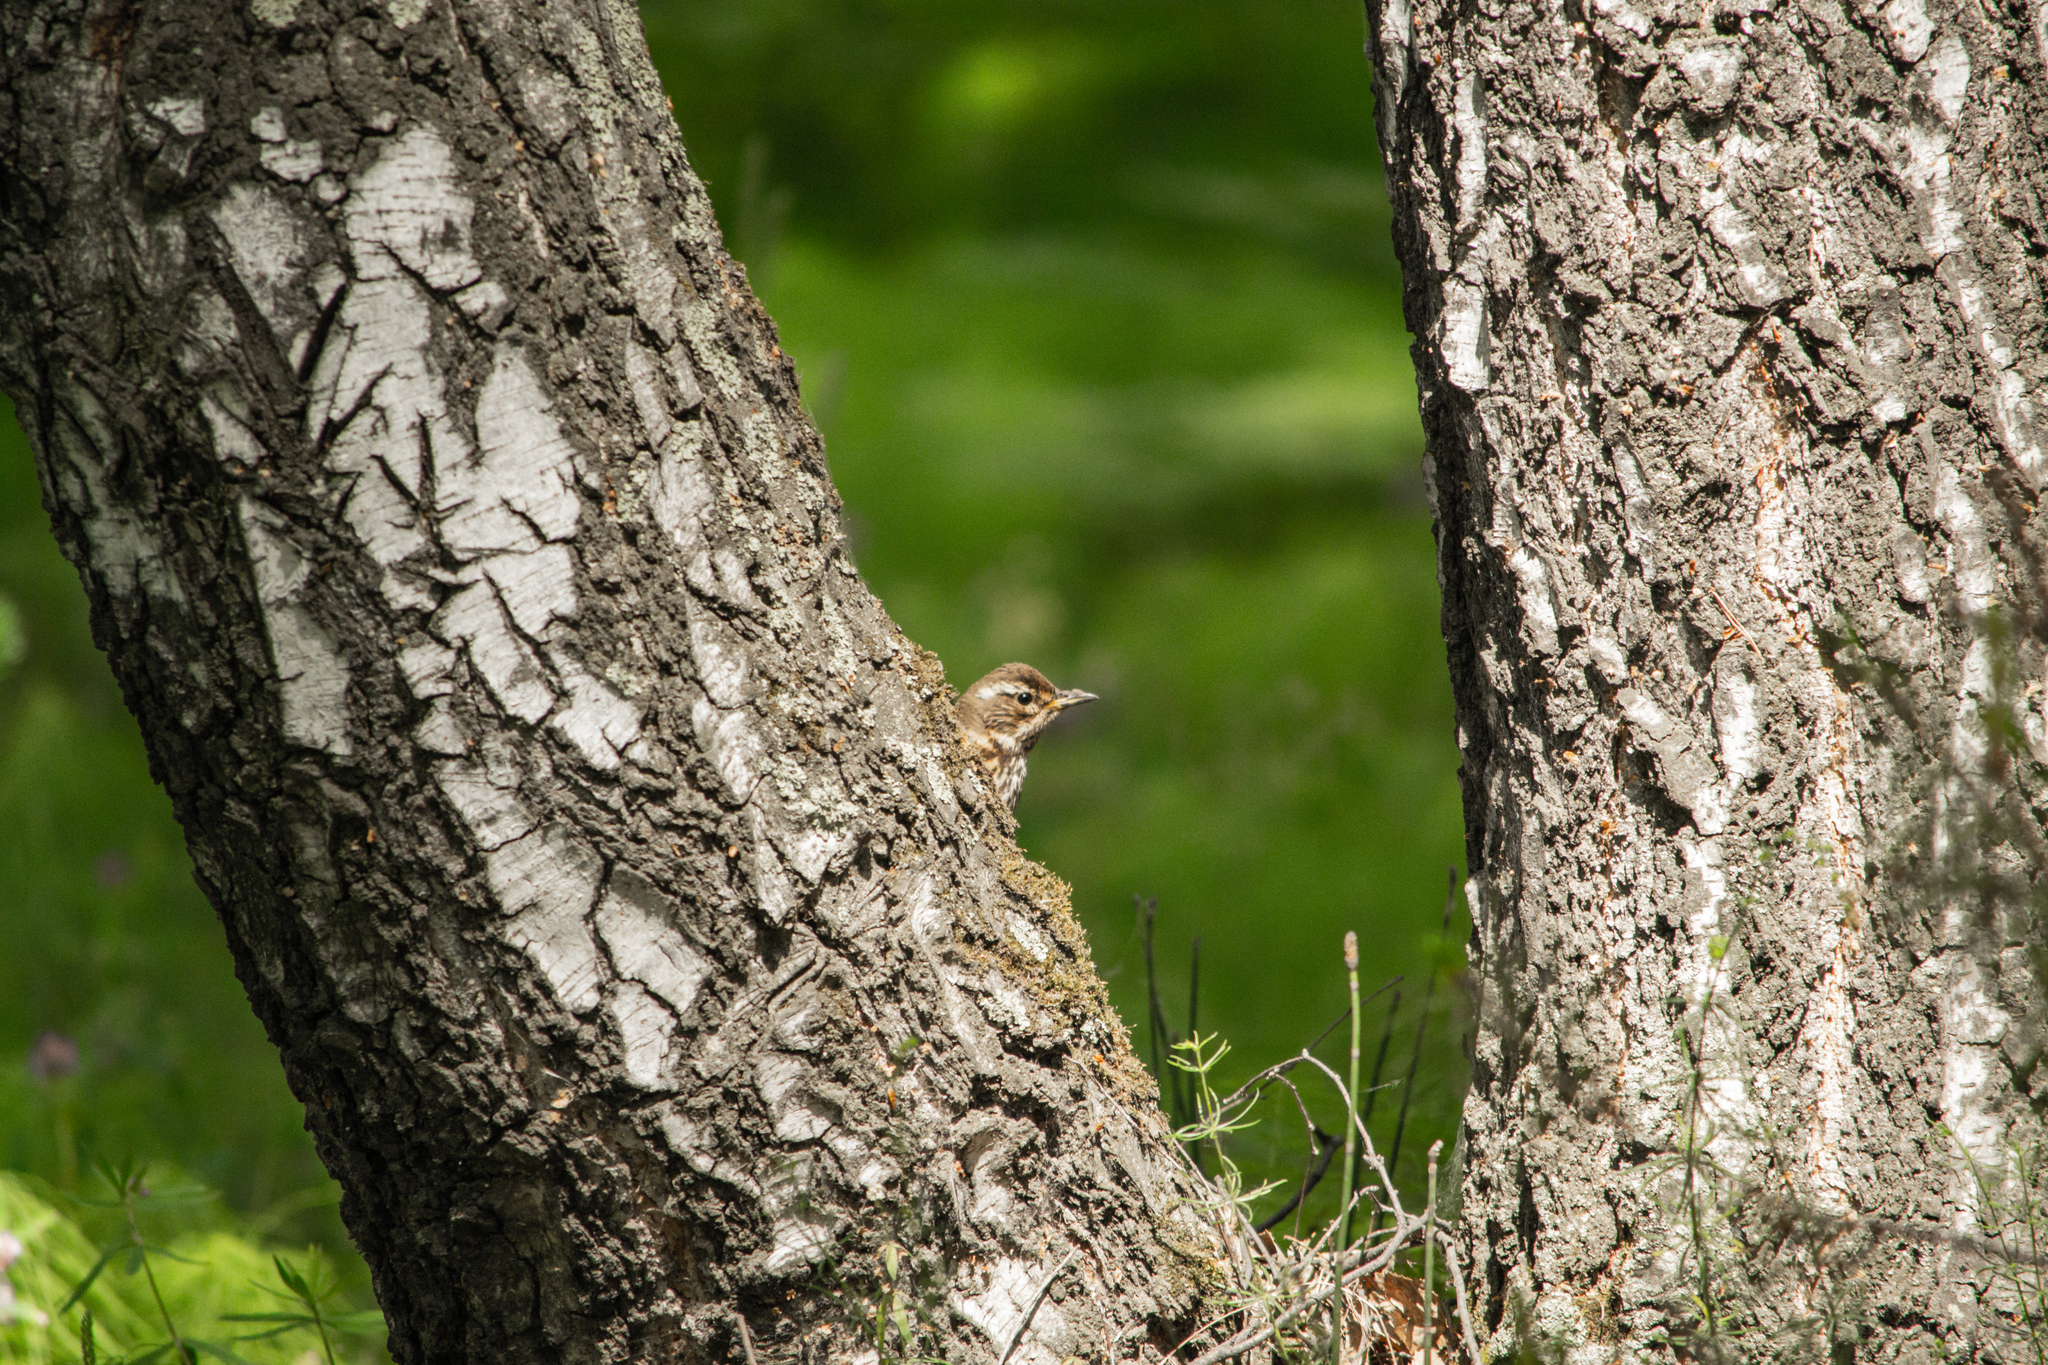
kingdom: Animalia
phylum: Chordata
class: Aves
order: Passeriformes
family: Turdidae
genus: Turdus
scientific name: Turdus iliacus
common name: Redwing
